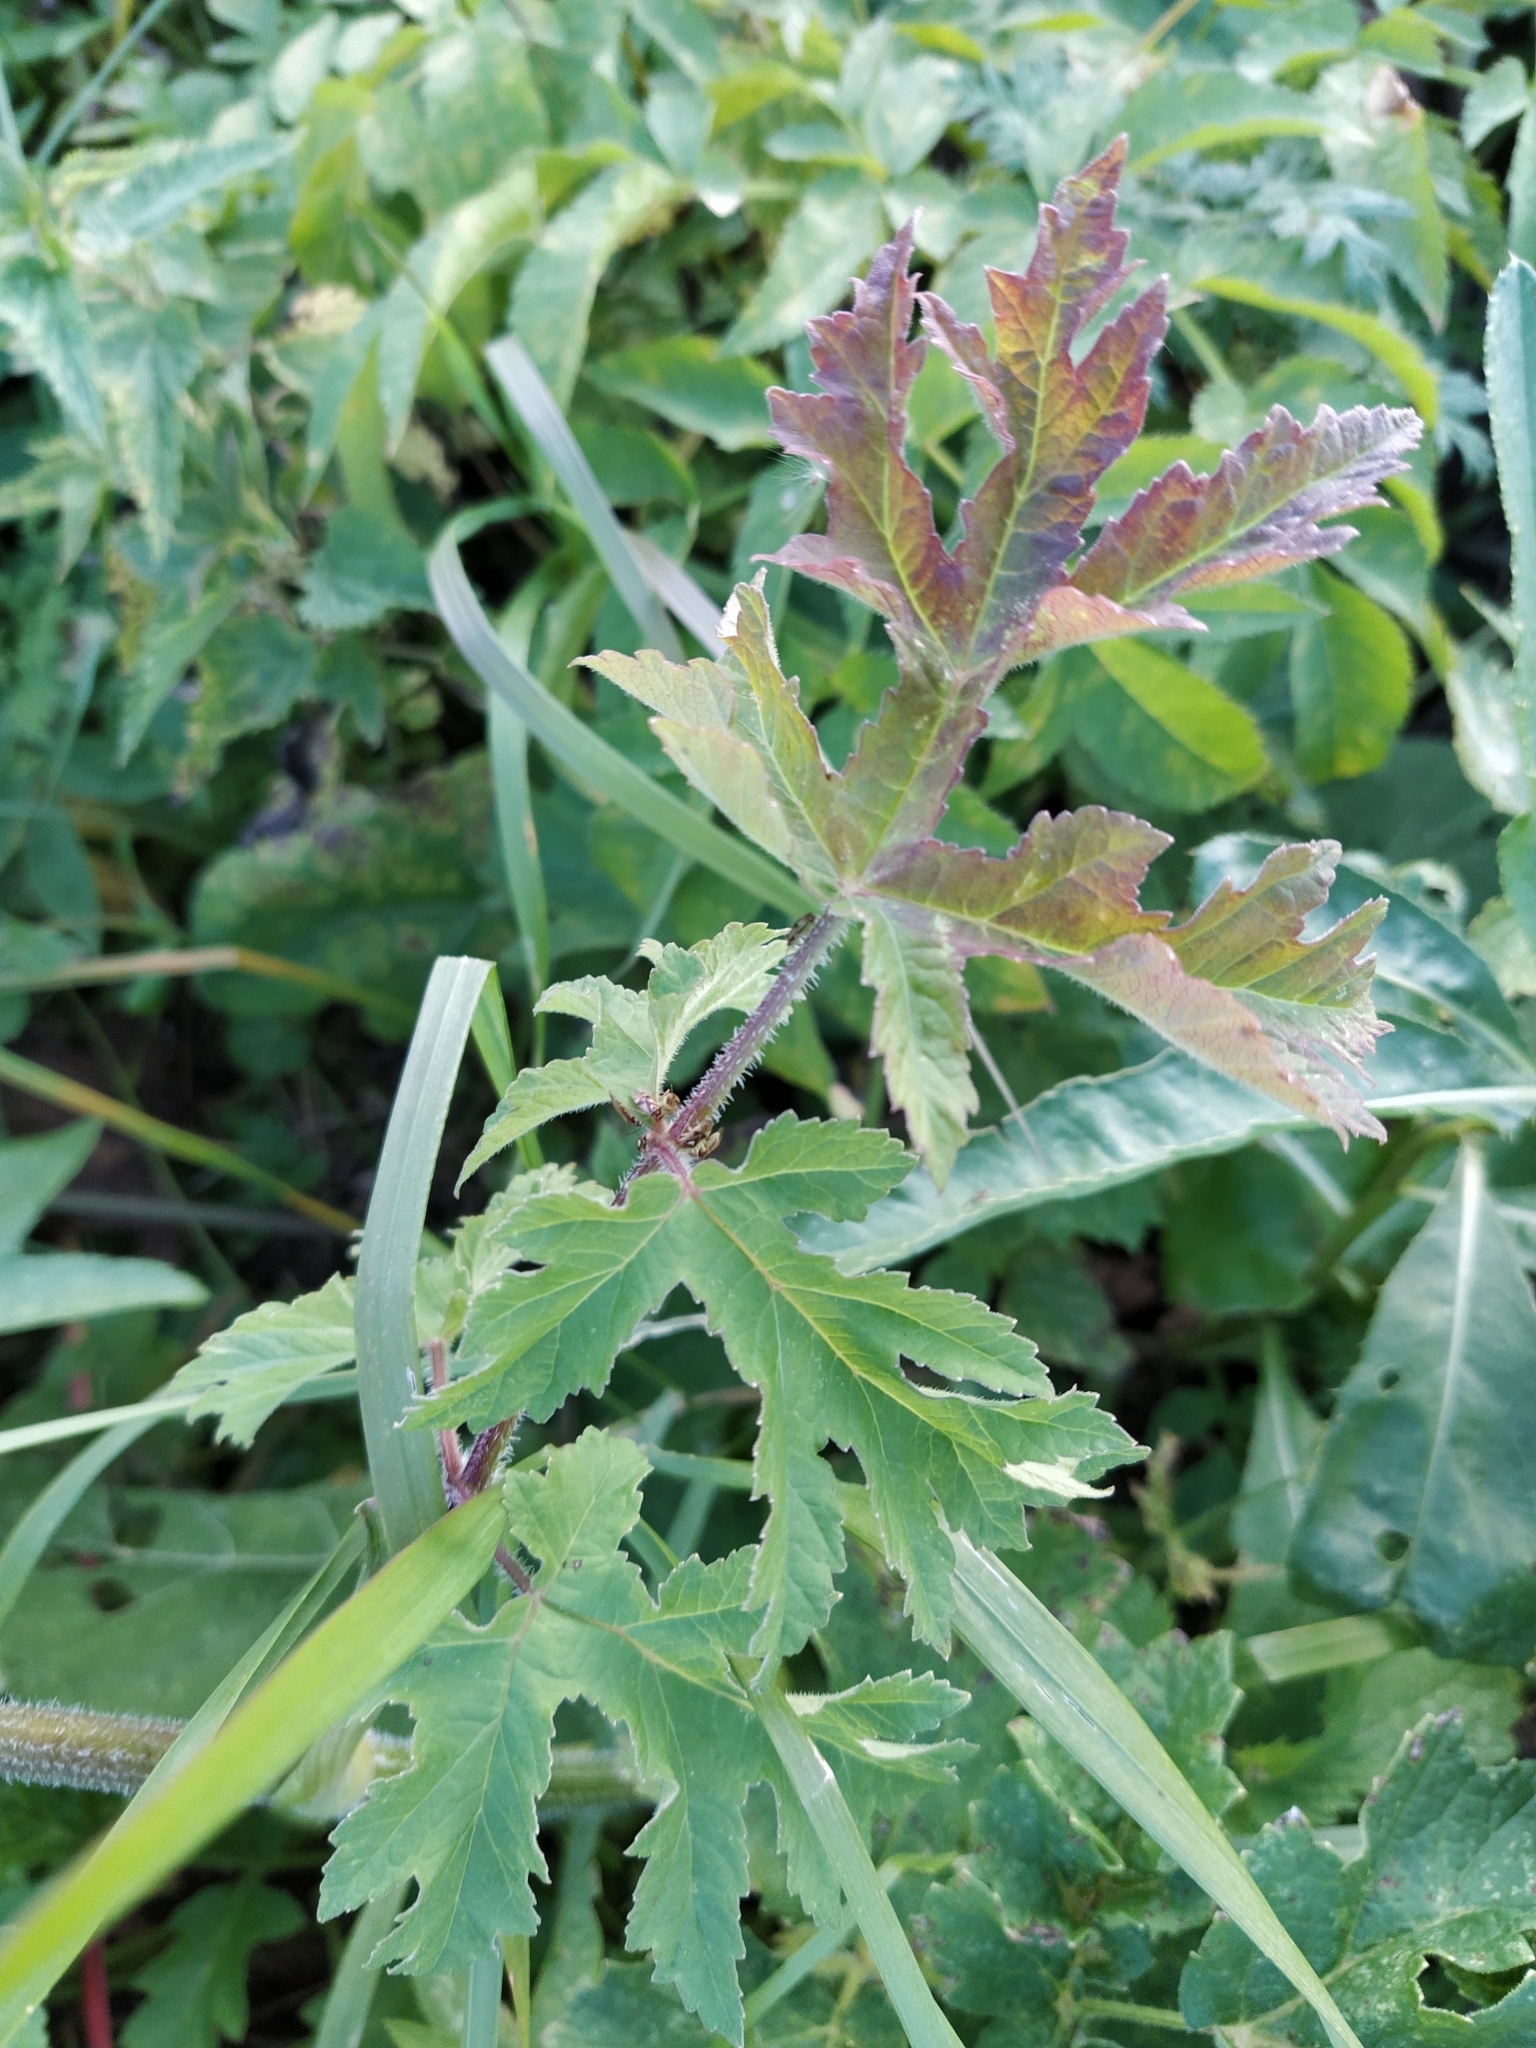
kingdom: Plantae
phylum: Tracheophyta
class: Magnoliopsida
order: Apiales
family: Apiaceae
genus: Heracleum
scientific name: Heracleum sphondylium
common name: Hogweed
